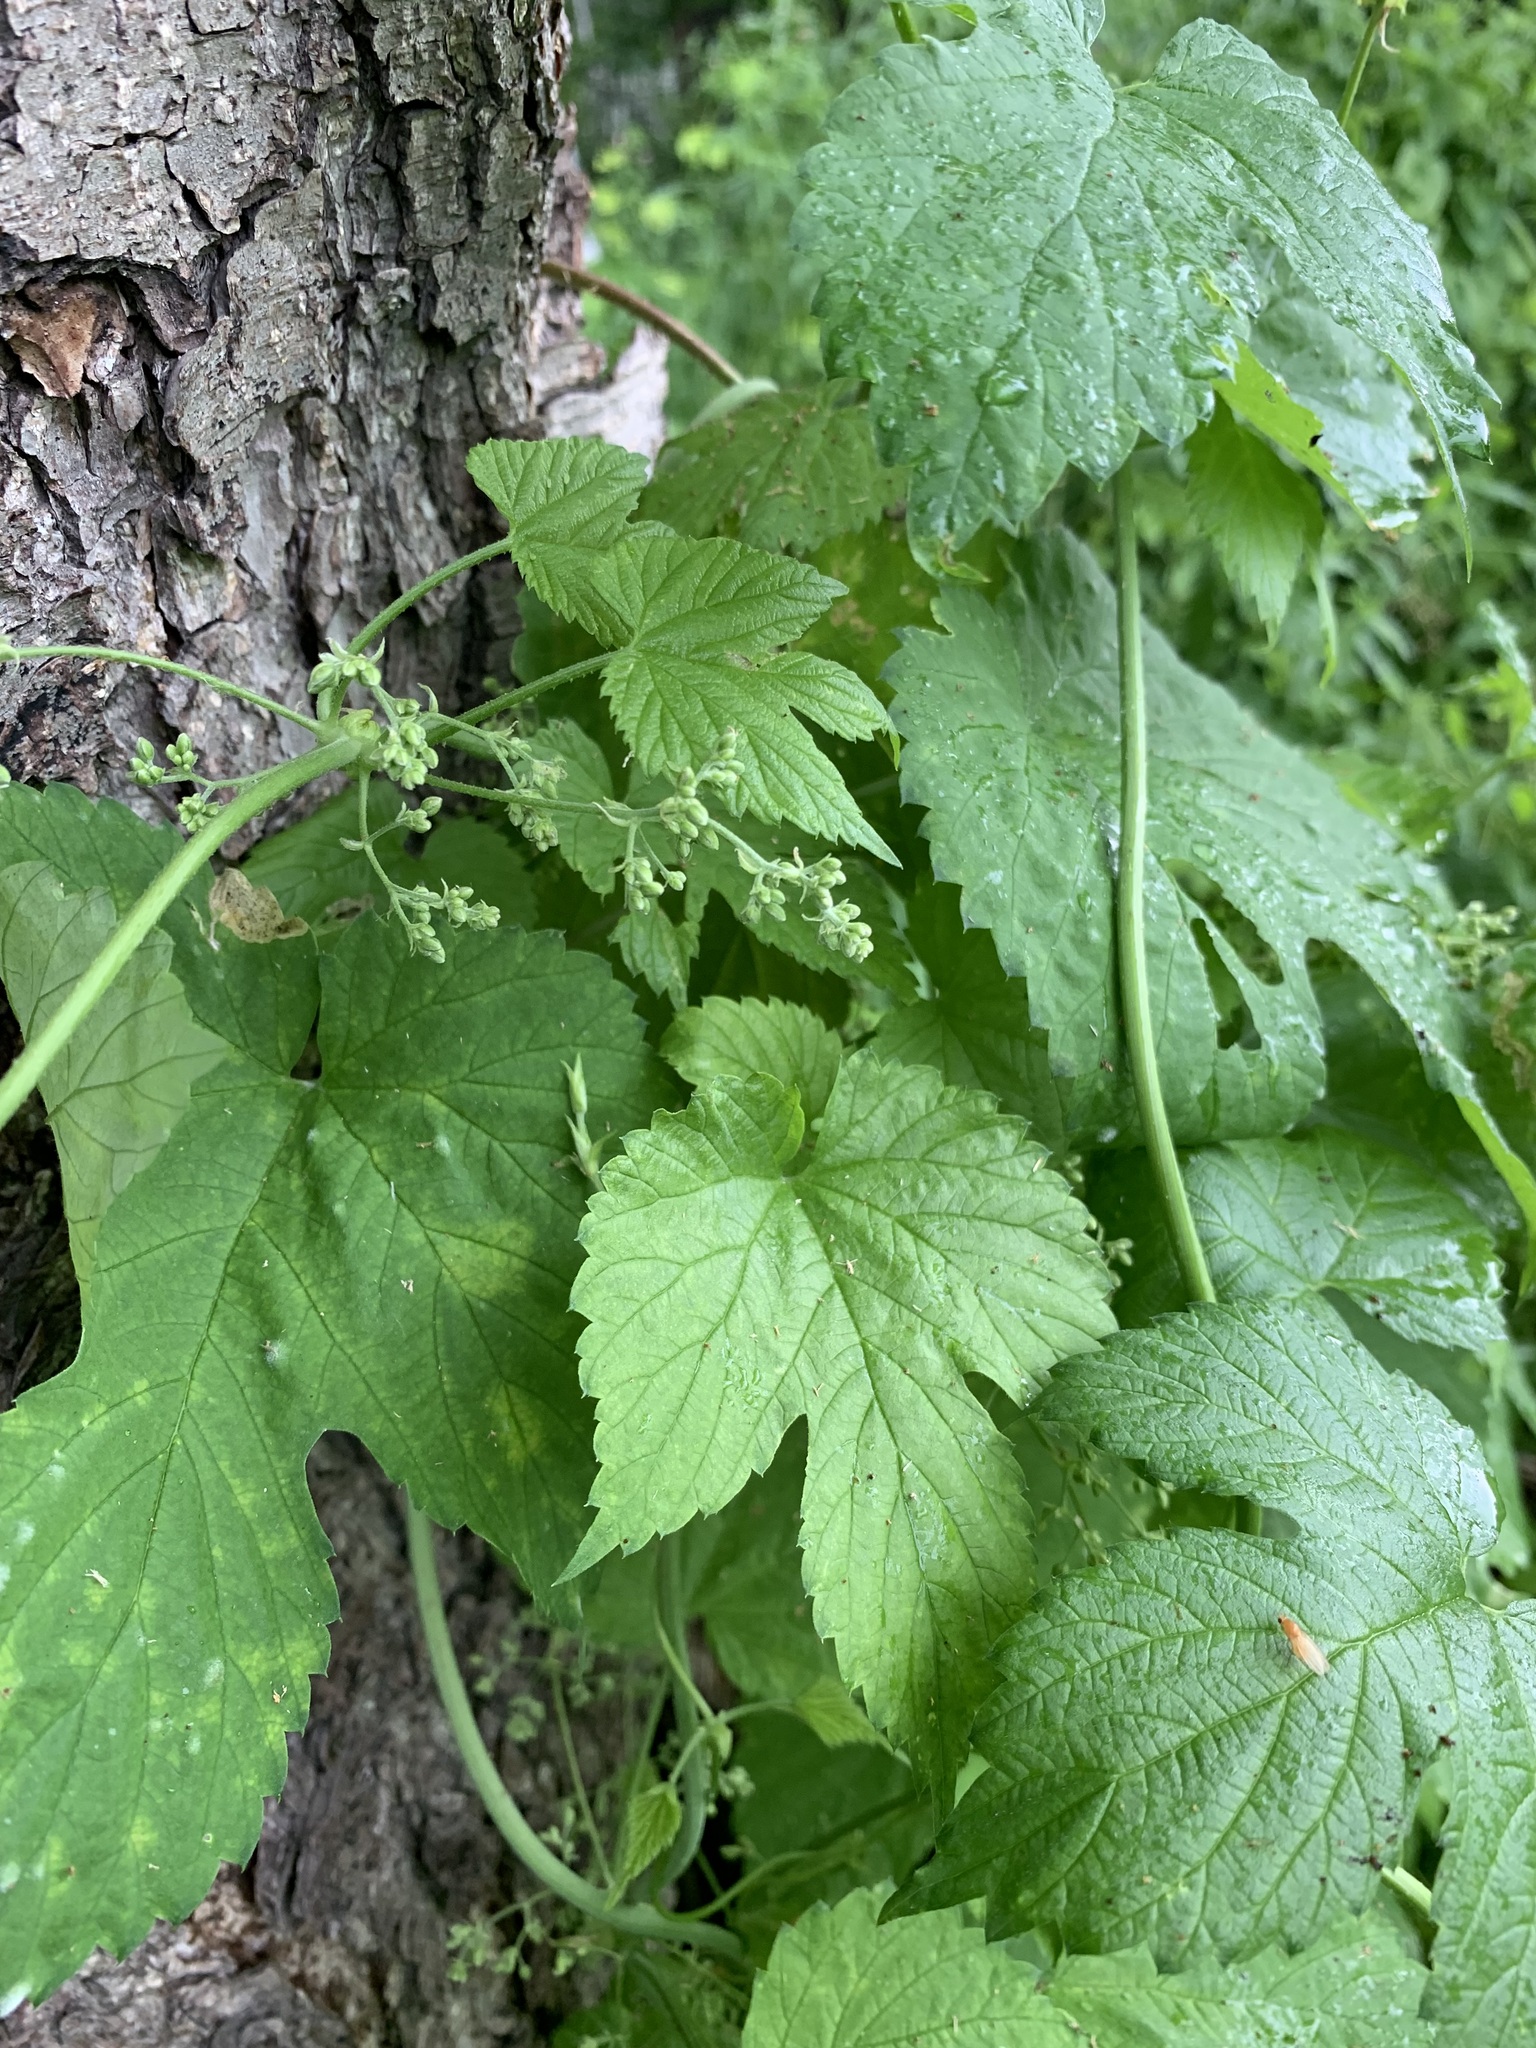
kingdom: Plantae
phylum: Tracheophyta
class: Magnoliopsida
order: Rosales
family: Cannabaceae
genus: Humulus
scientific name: Humulus lupulus
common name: Hop
